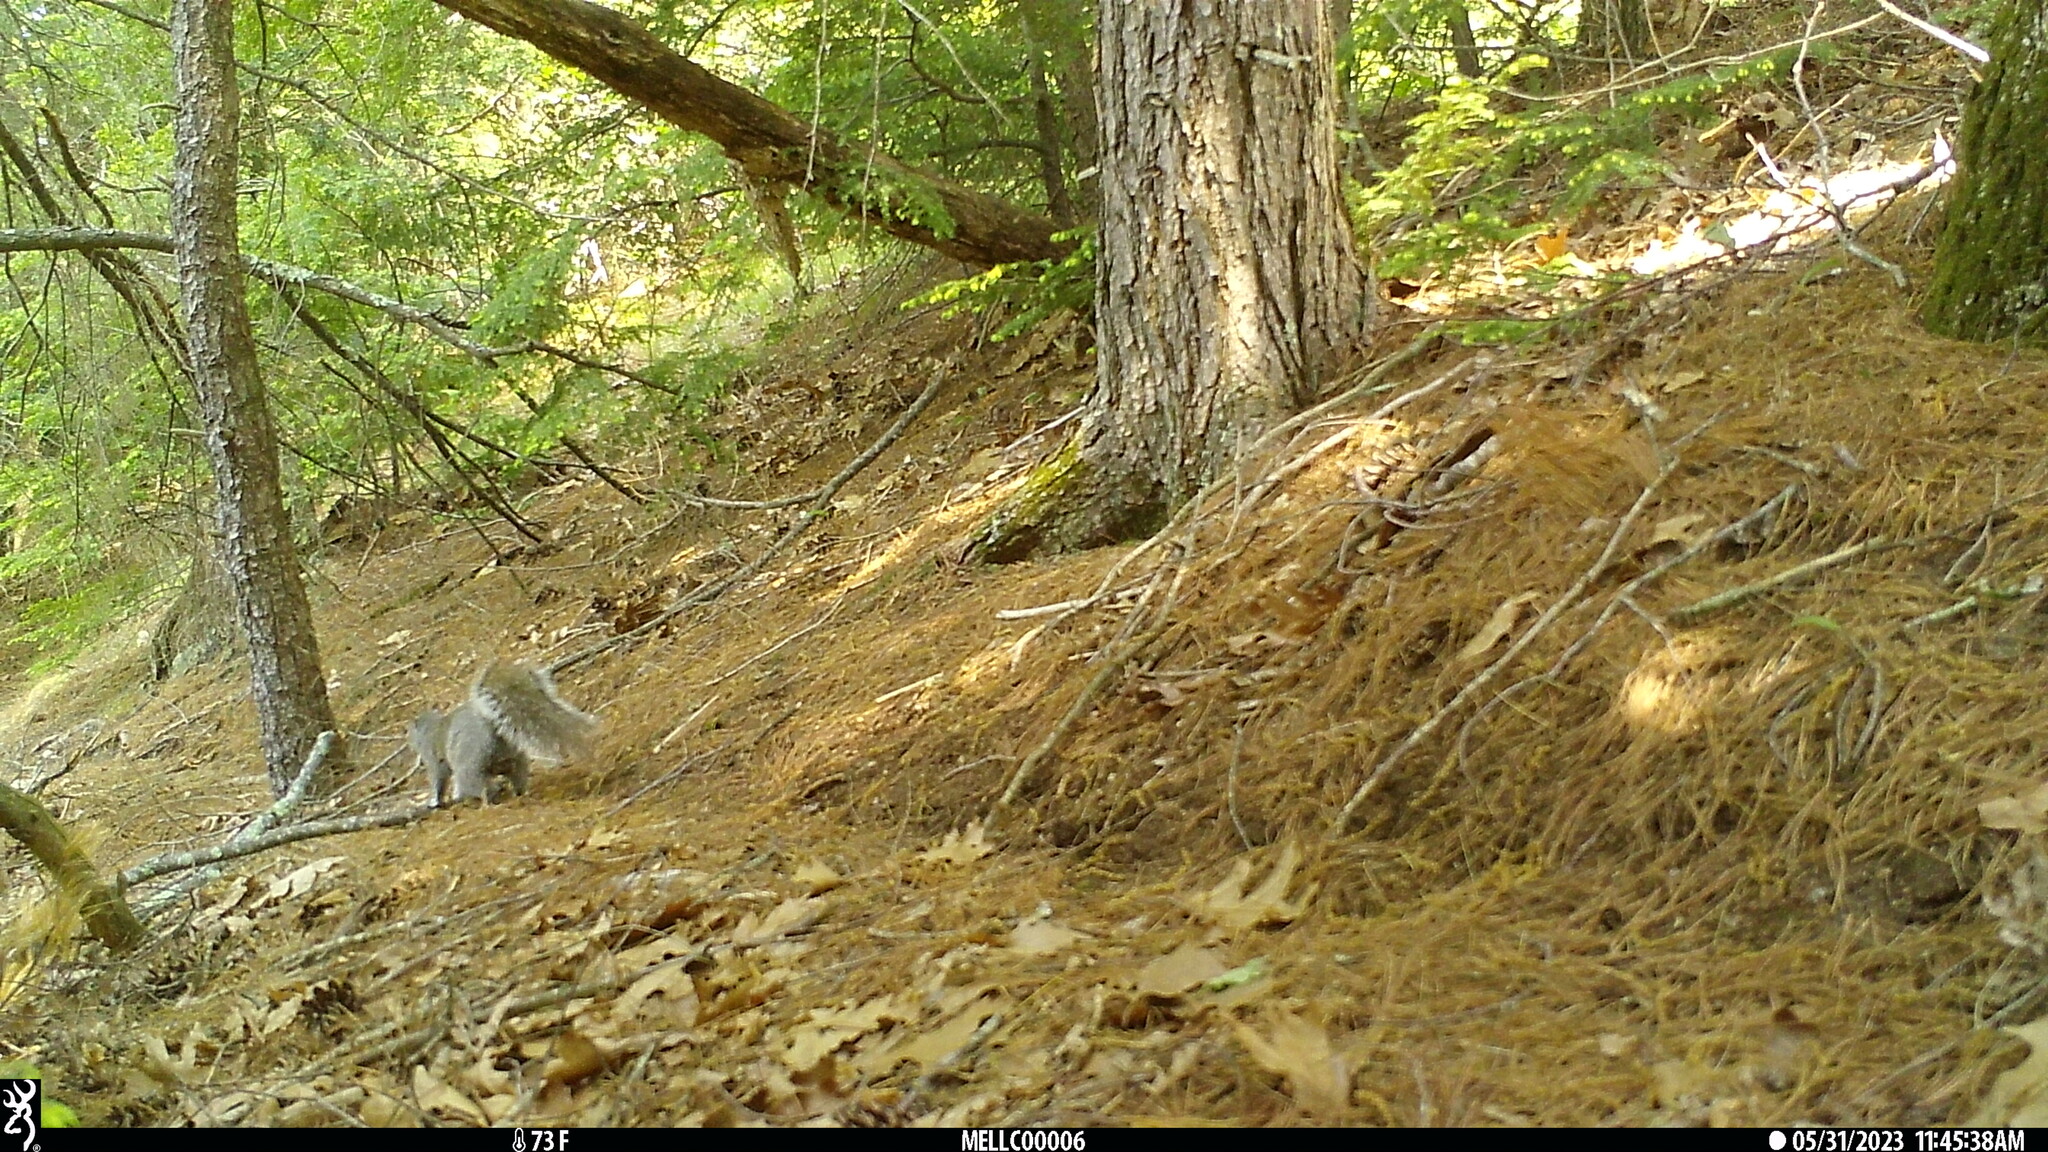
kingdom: Animalia
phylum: Chordata
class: Mammalia
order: Rodentia
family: Sciuridae
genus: Sciurus
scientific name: Sciurus carolinensis
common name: Eastern gray squirrel
